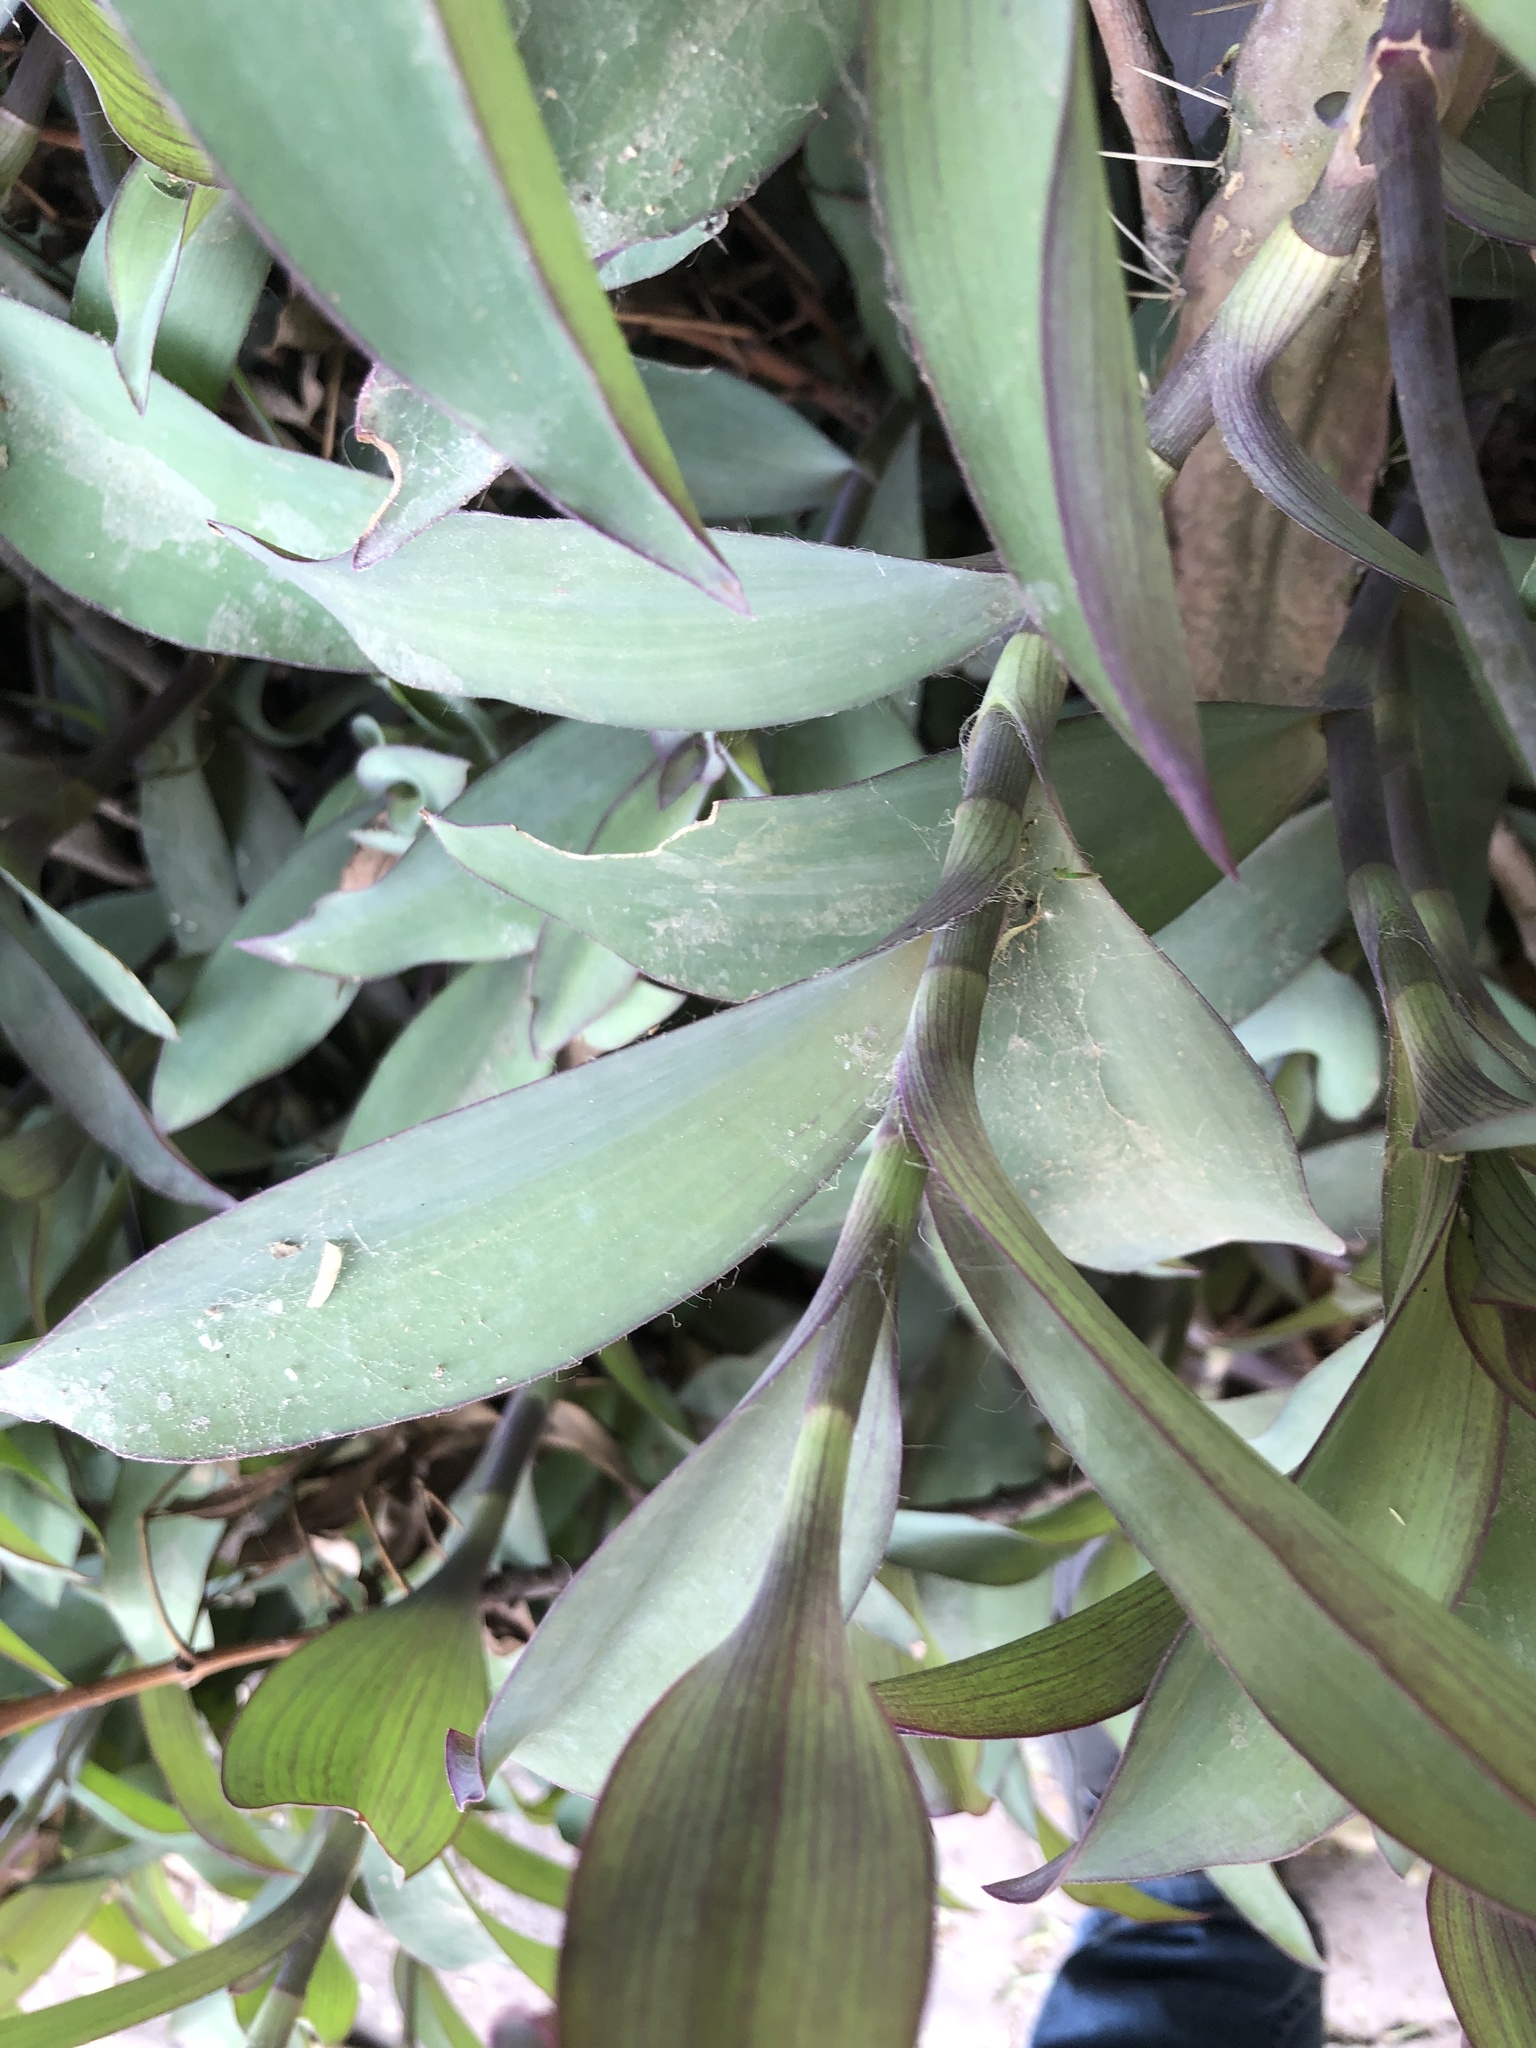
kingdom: Plantae
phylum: Tracheophyta
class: Liliopsida
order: Commelinales
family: Commelinaceae
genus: Tradescantia
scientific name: Tradescantia pallida
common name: Purpleheart
